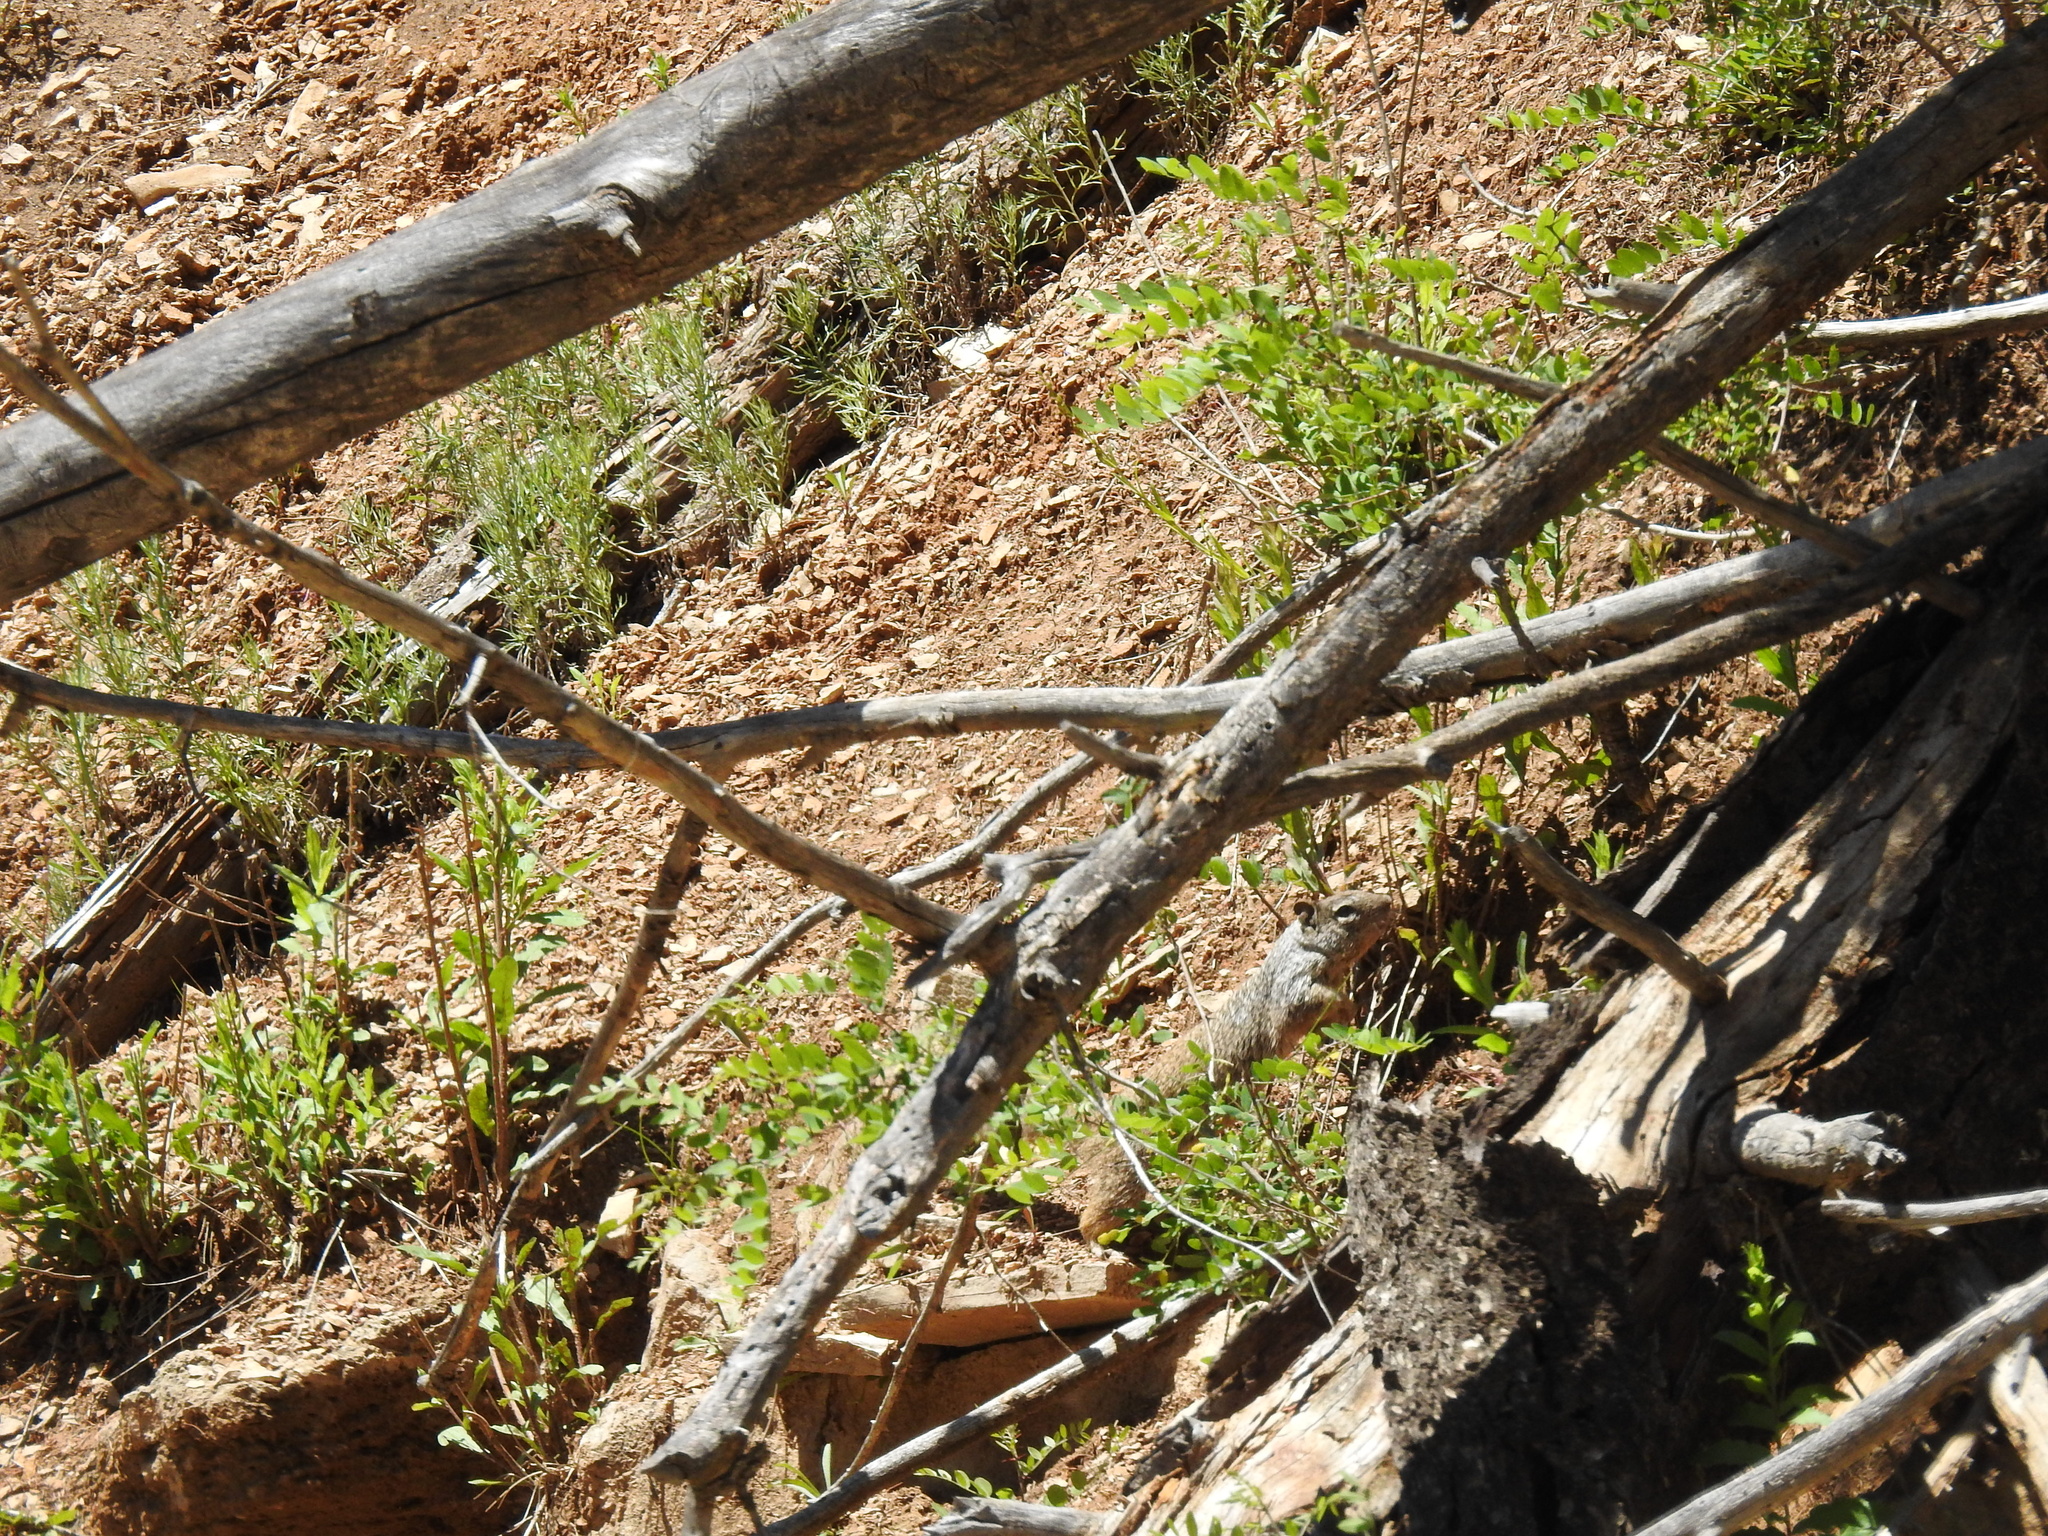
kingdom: Animalia
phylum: Chordata
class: Mammalia
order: Rodentia
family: Sciuridae
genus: Otospermophilus
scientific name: Otospermophilus variegatus
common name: Rock squirrel
